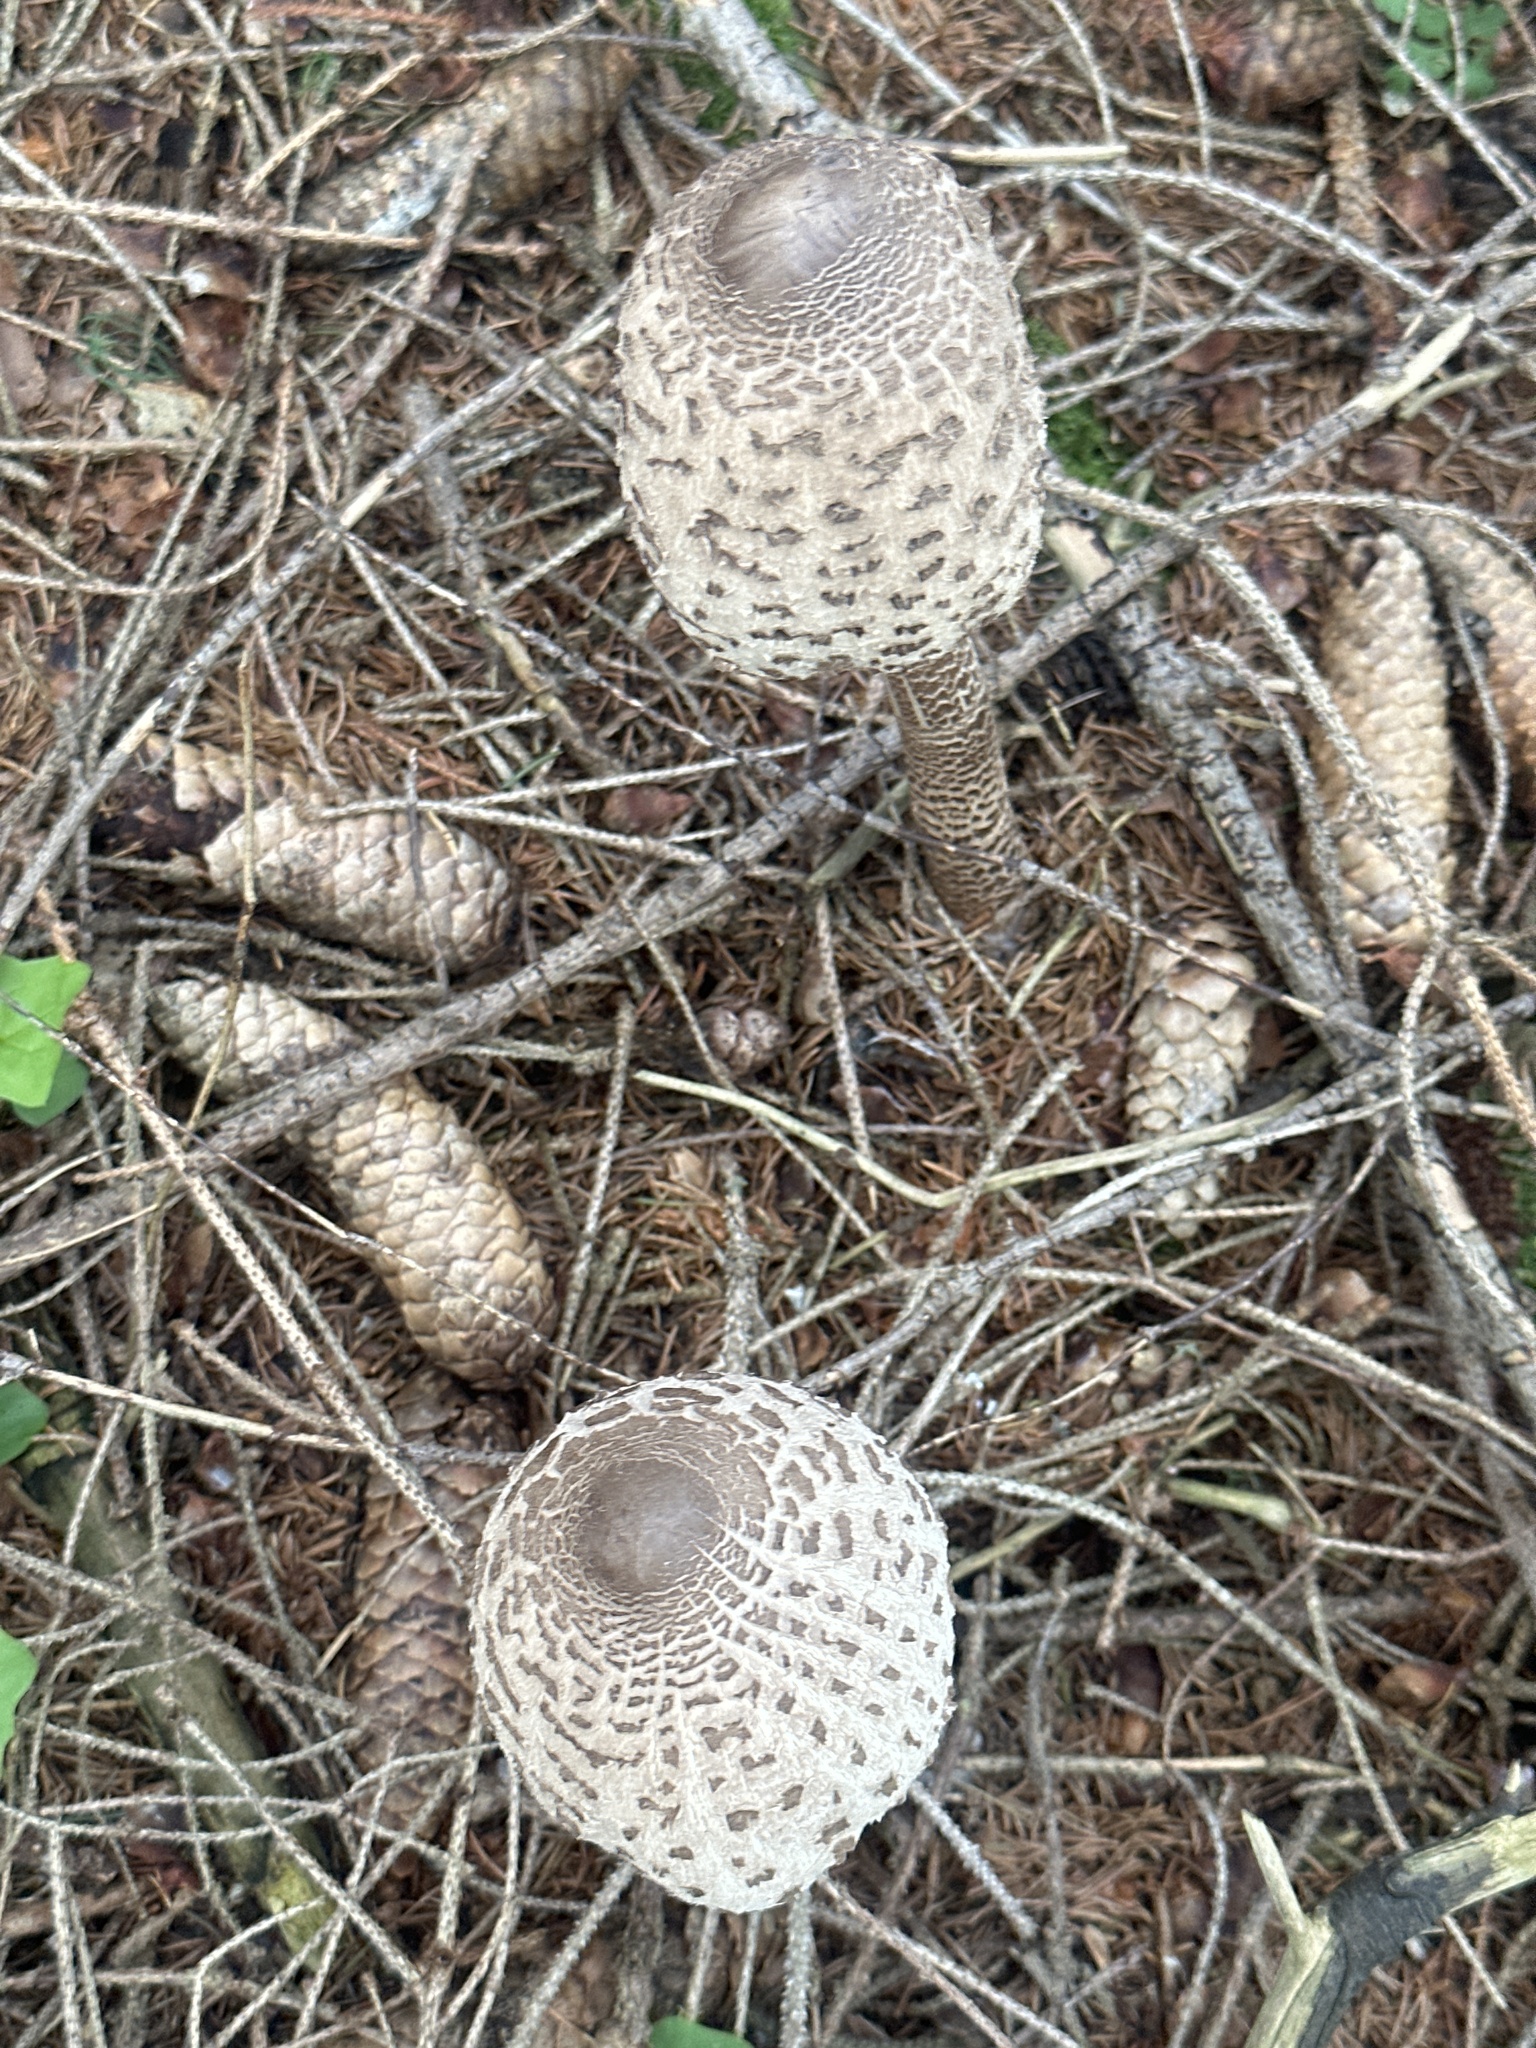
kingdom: Fungi
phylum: Basidiomycota
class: Agaricomycetes
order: Agaricales
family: Agaricaceae
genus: Macrolepiota
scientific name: Macrolepiota procera
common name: Parasol
